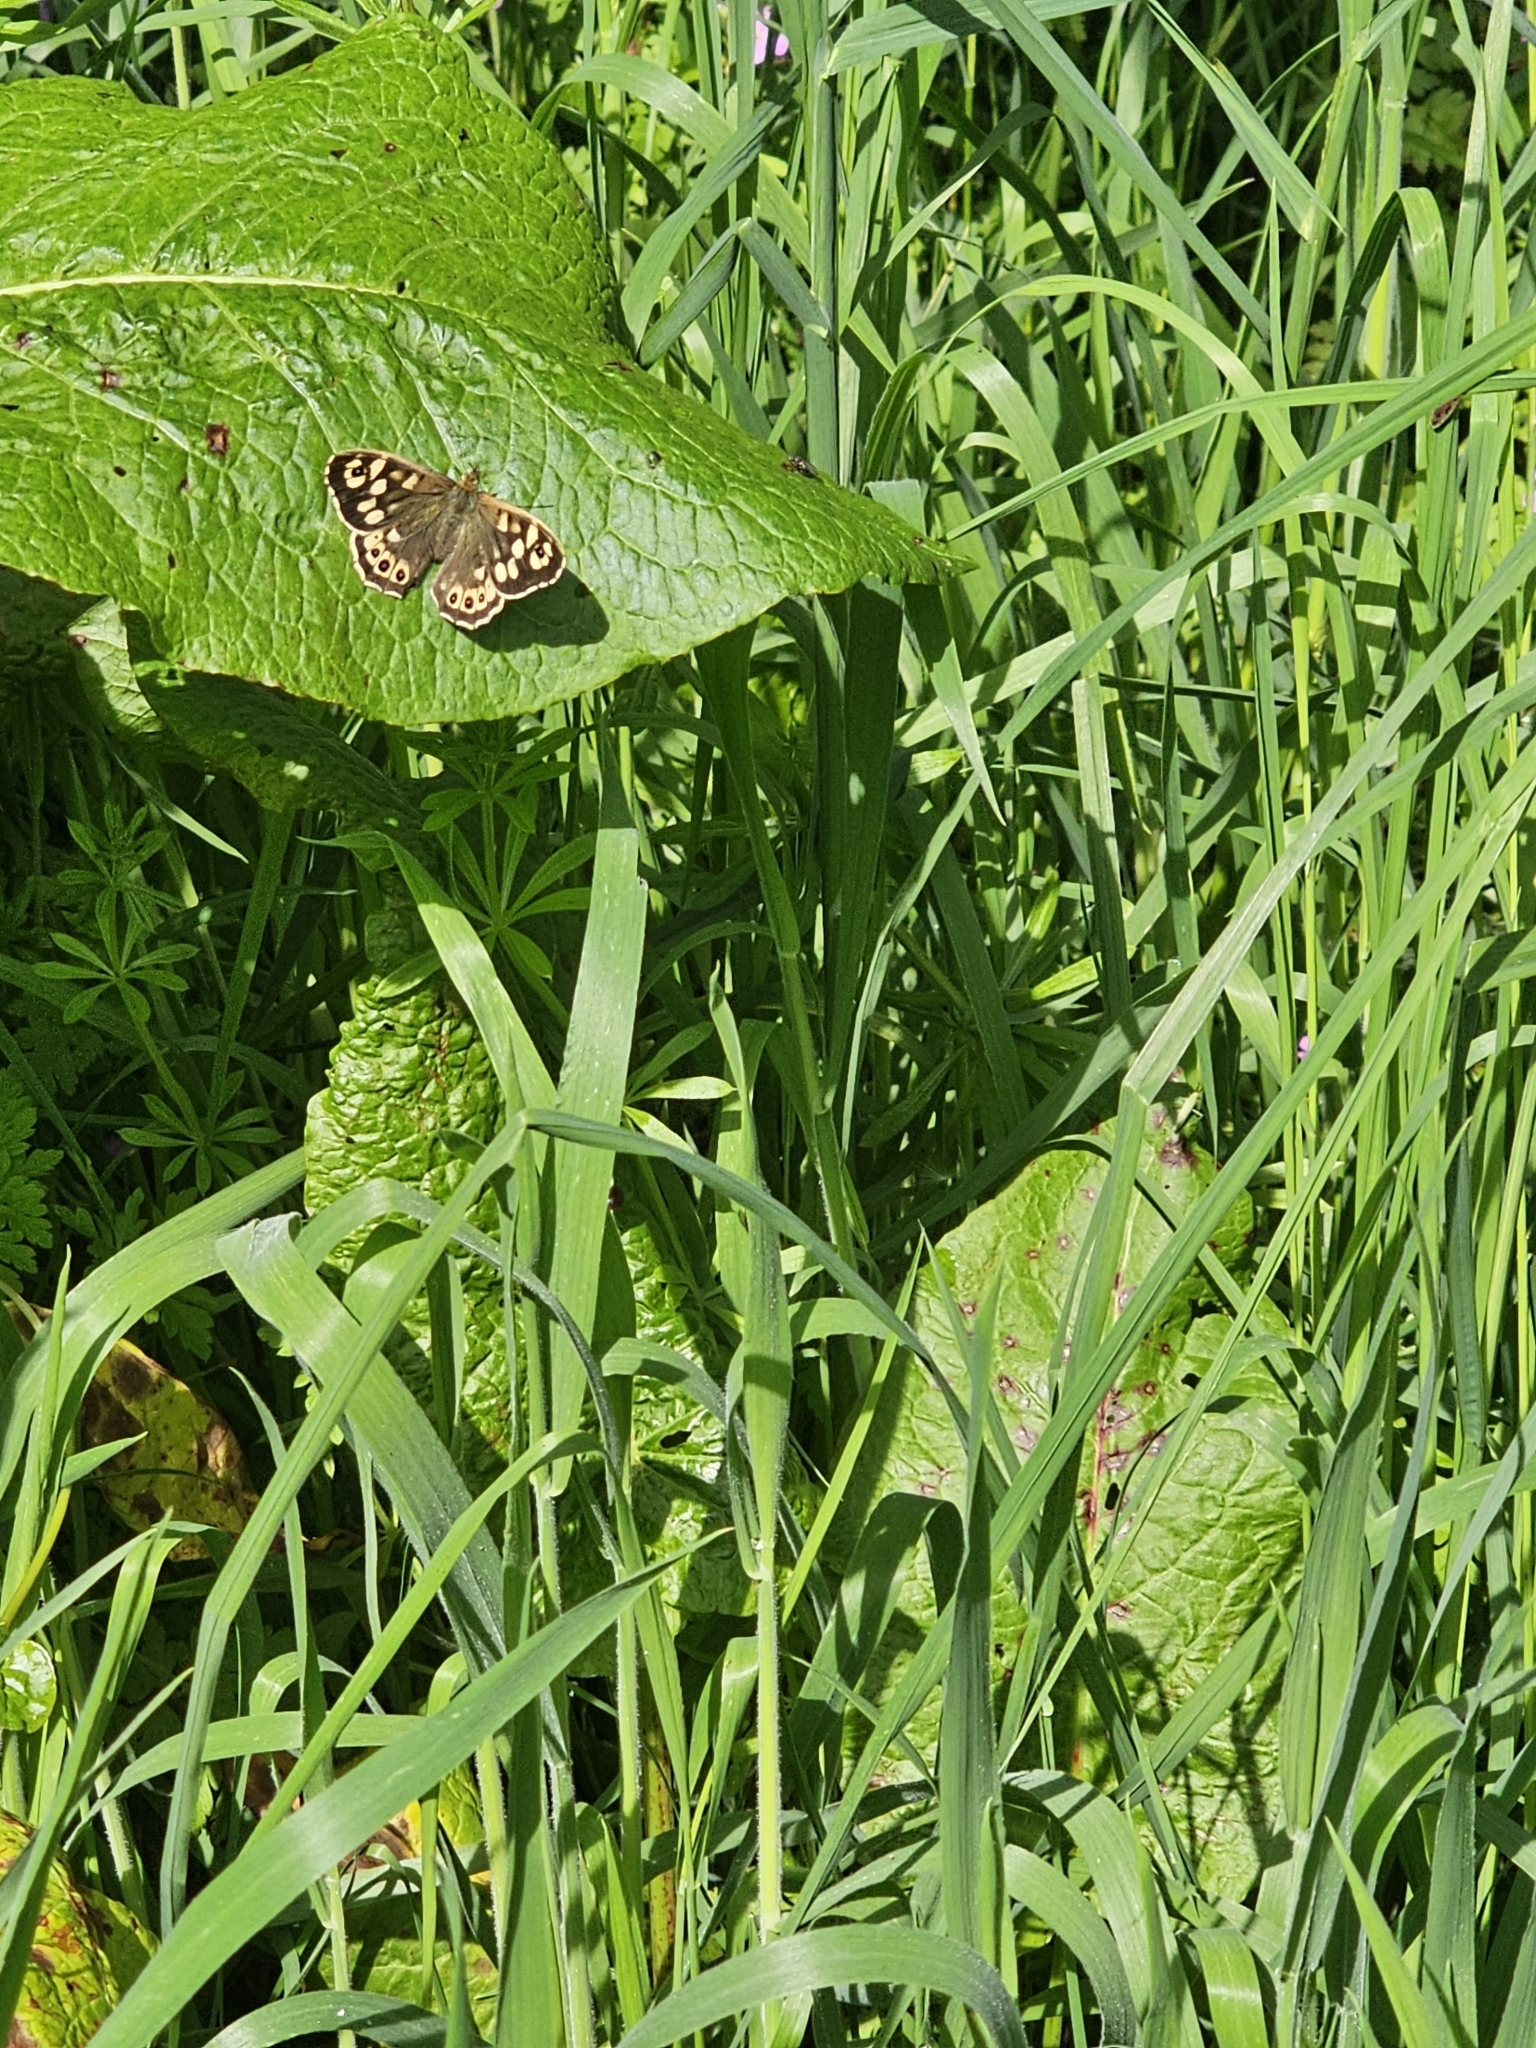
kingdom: Animalia
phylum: Arthropoda
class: Insecta
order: Lepidoptera
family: Nymphalidae
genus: Pararge
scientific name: Pararge aegeria
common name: Speckled wood
